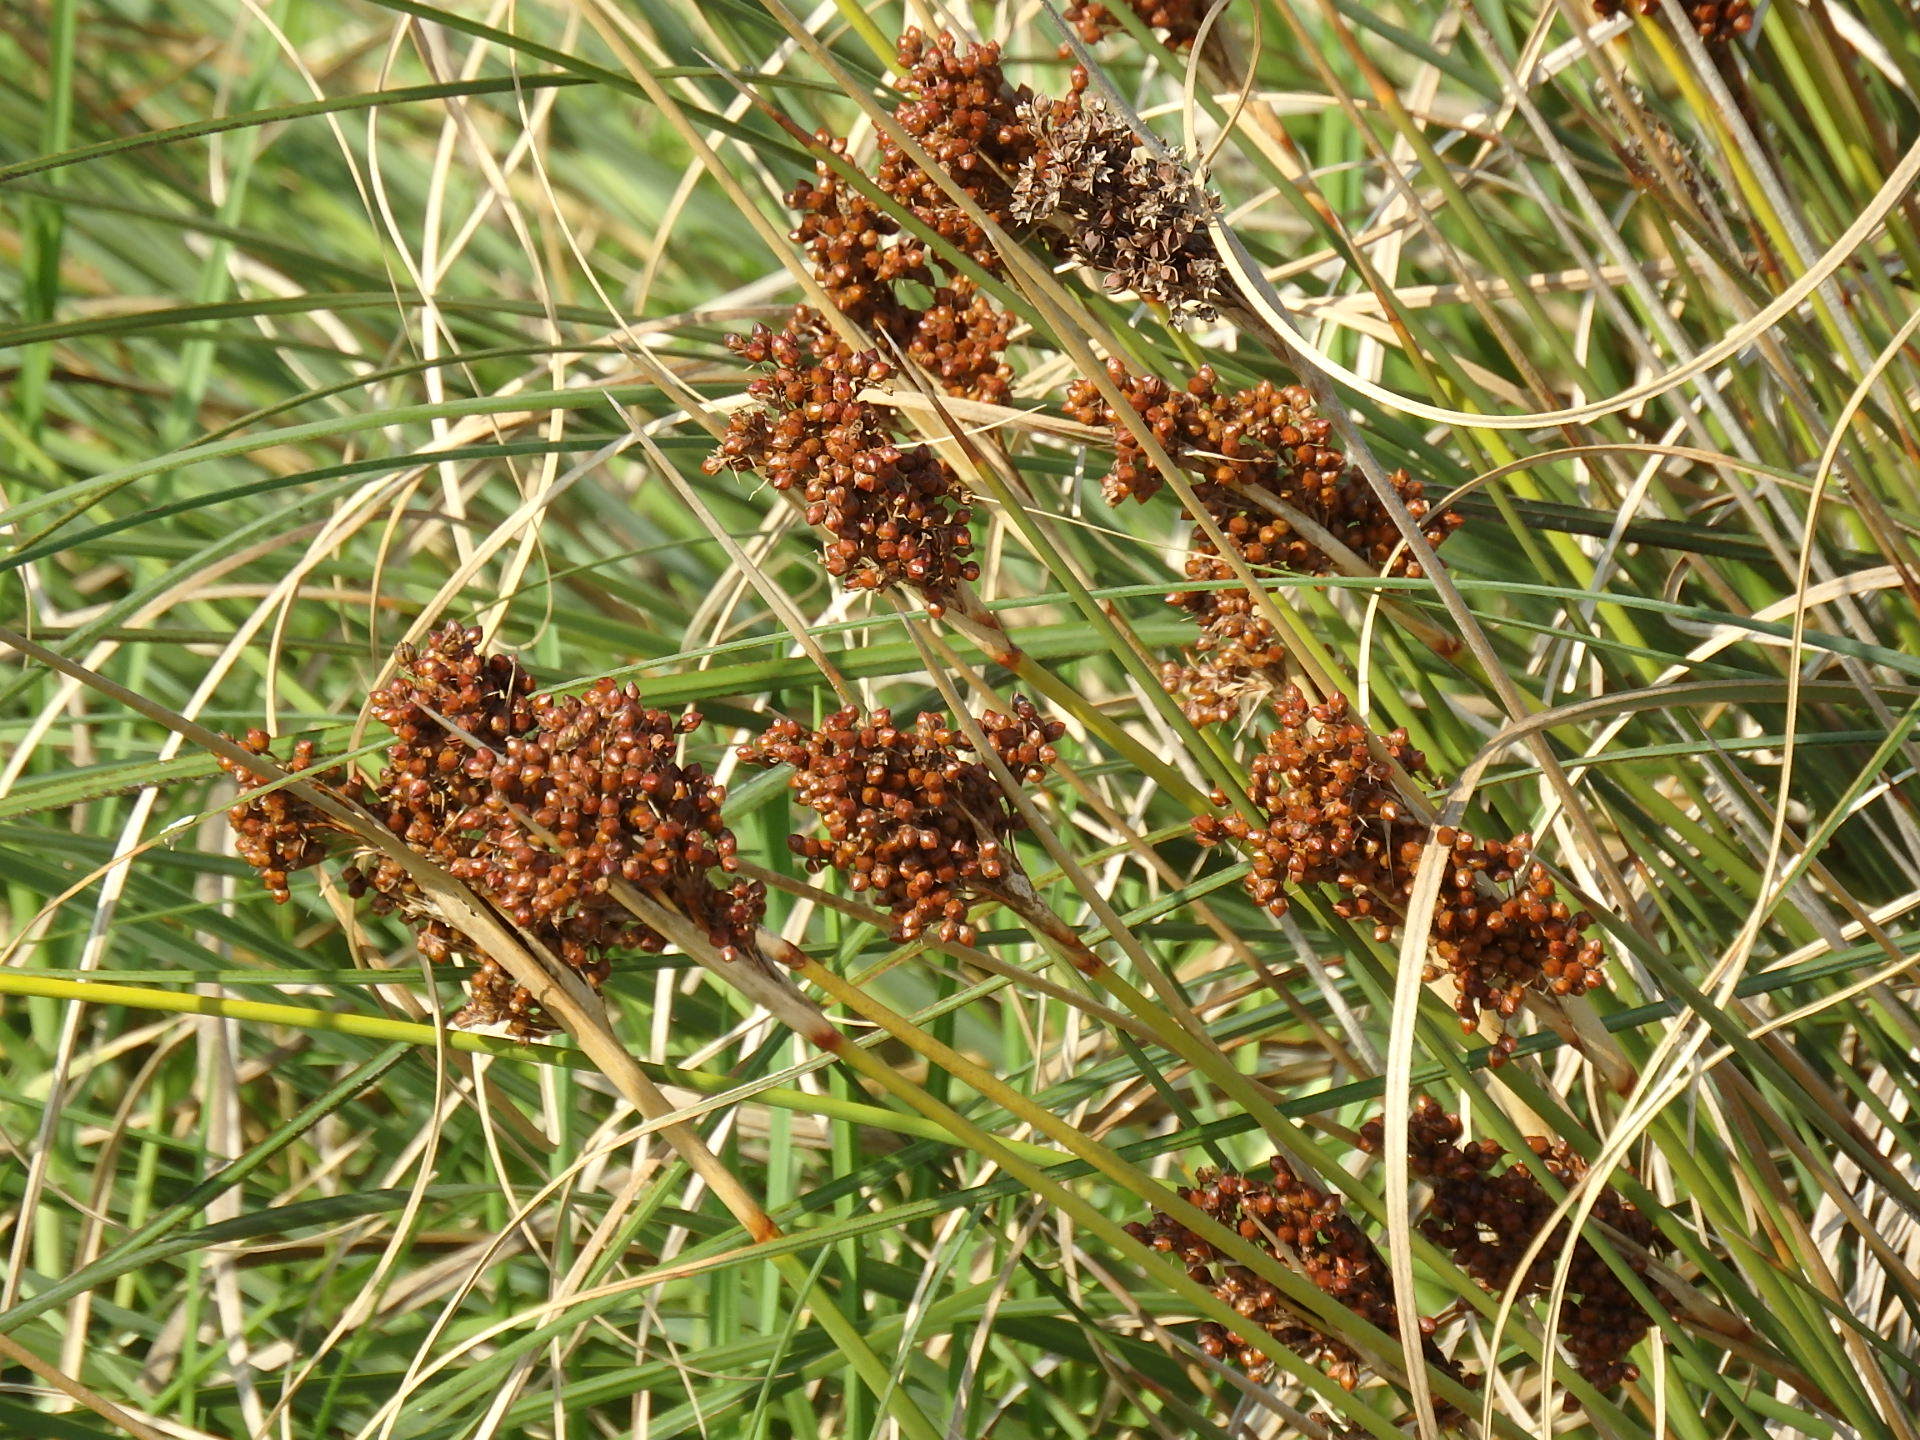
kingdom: Plantae
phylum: Tracheophyta
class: Liliopsida
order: Poales
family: Juncaceae
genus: Juncus
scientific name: Juncus acutus
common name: Sharp rush
